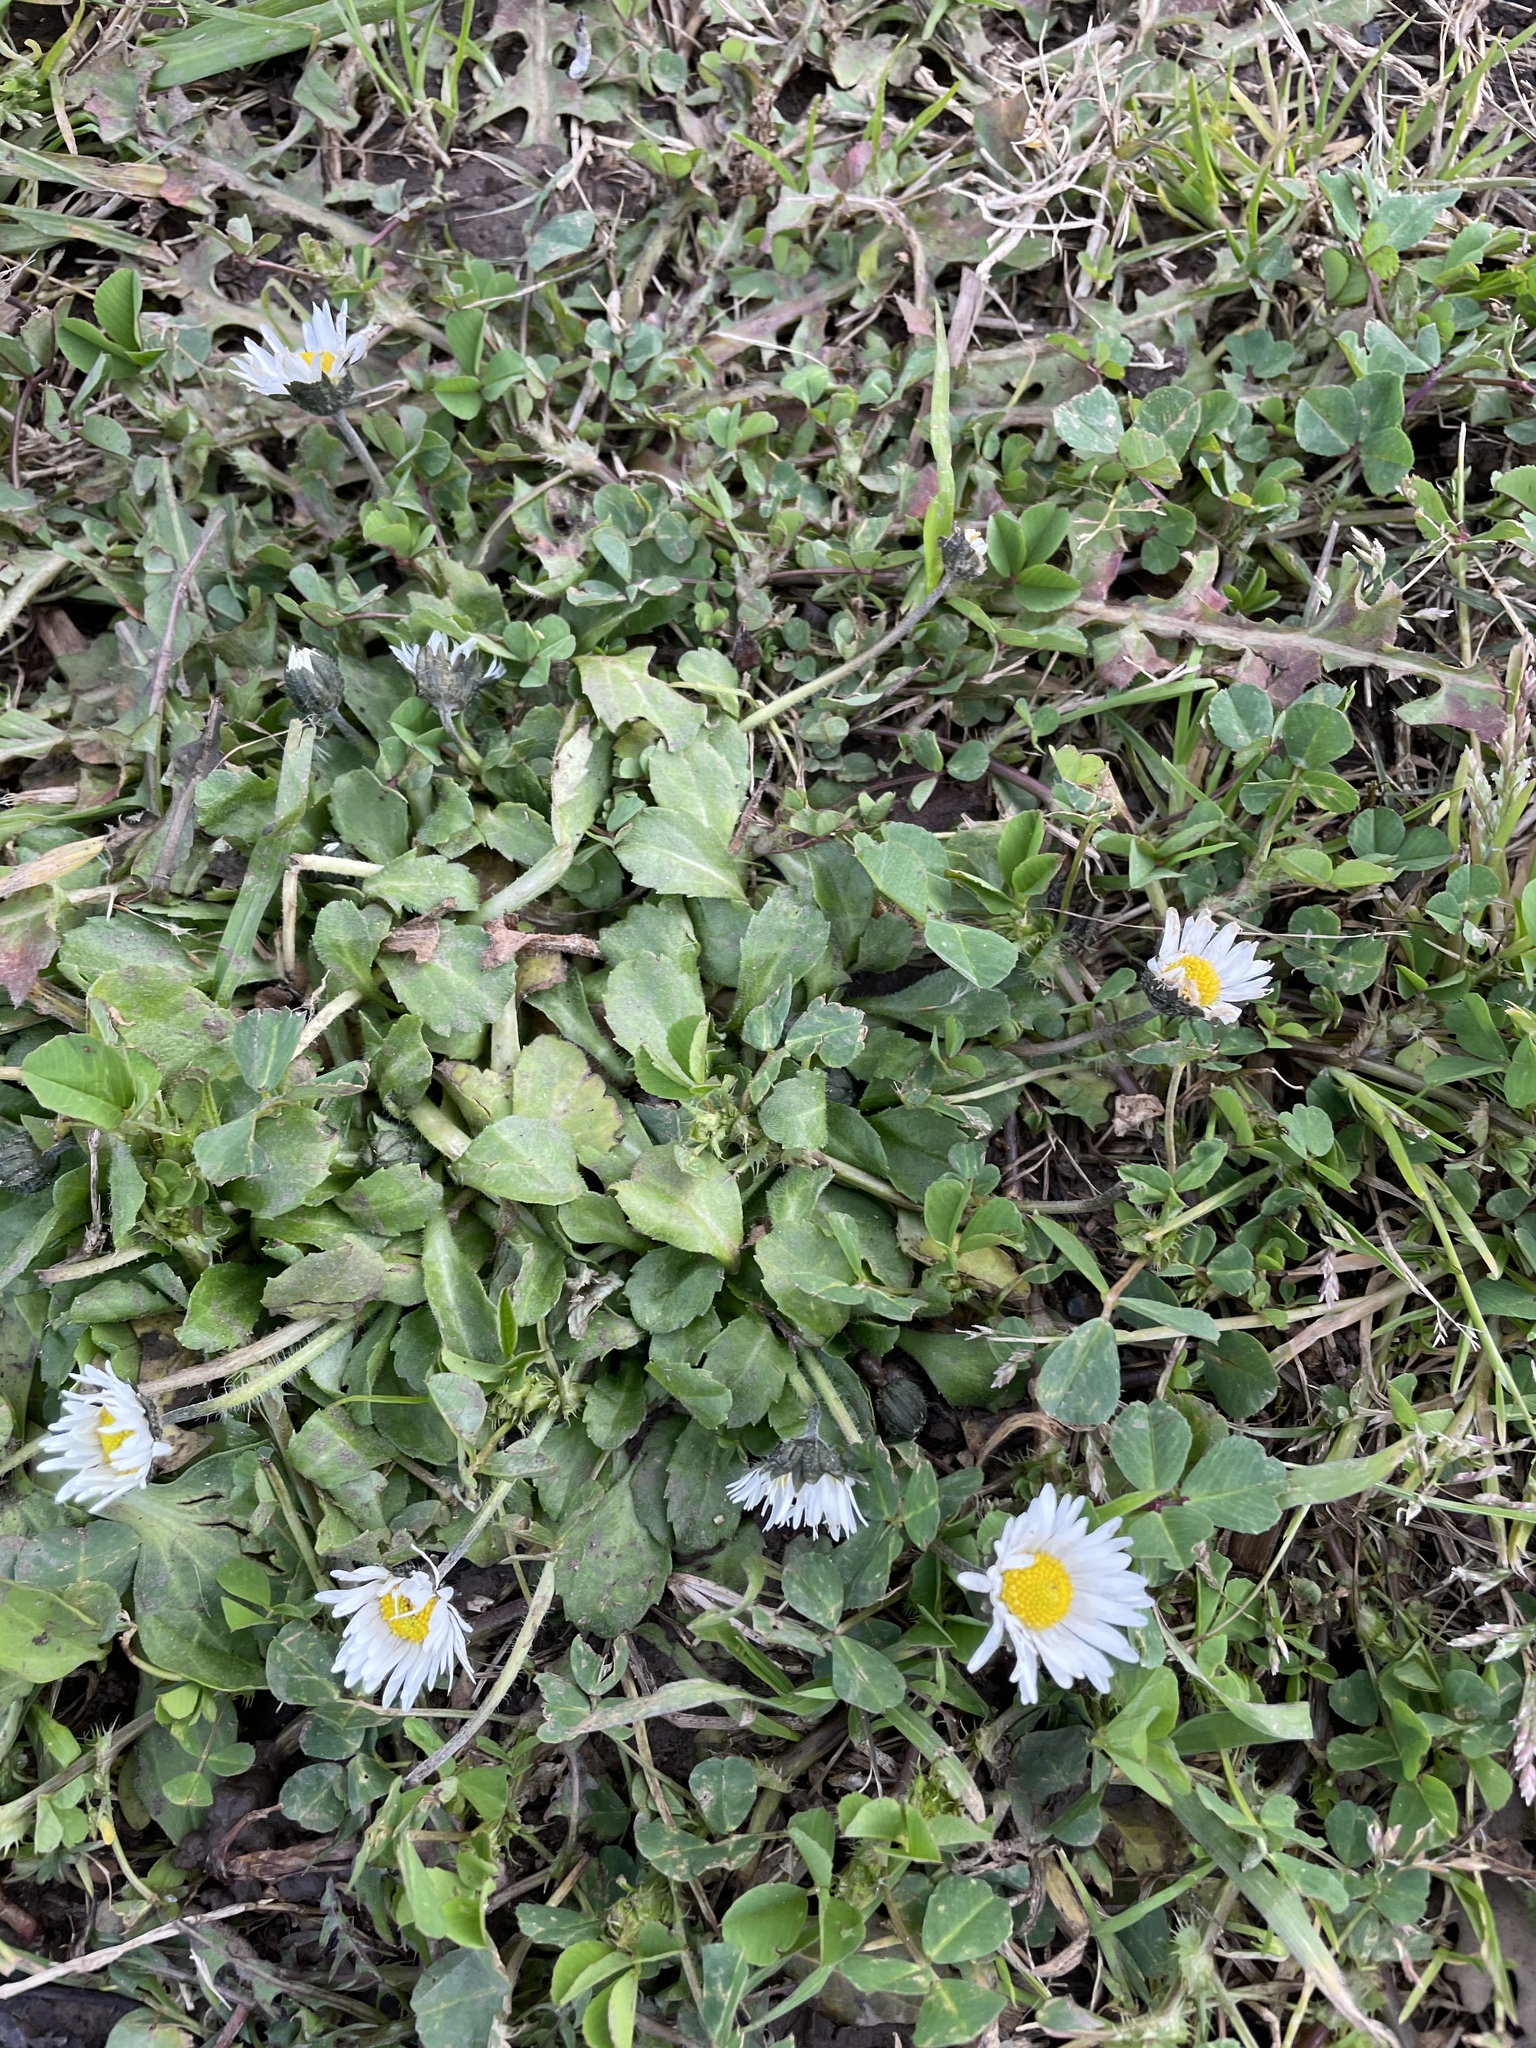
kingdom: Plantae
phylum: Tracheophyta
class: Magnoliopsida
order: Asterales
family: Asteraceae
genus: Bellis
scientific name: Bellis perennis
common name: Lawndaisy
